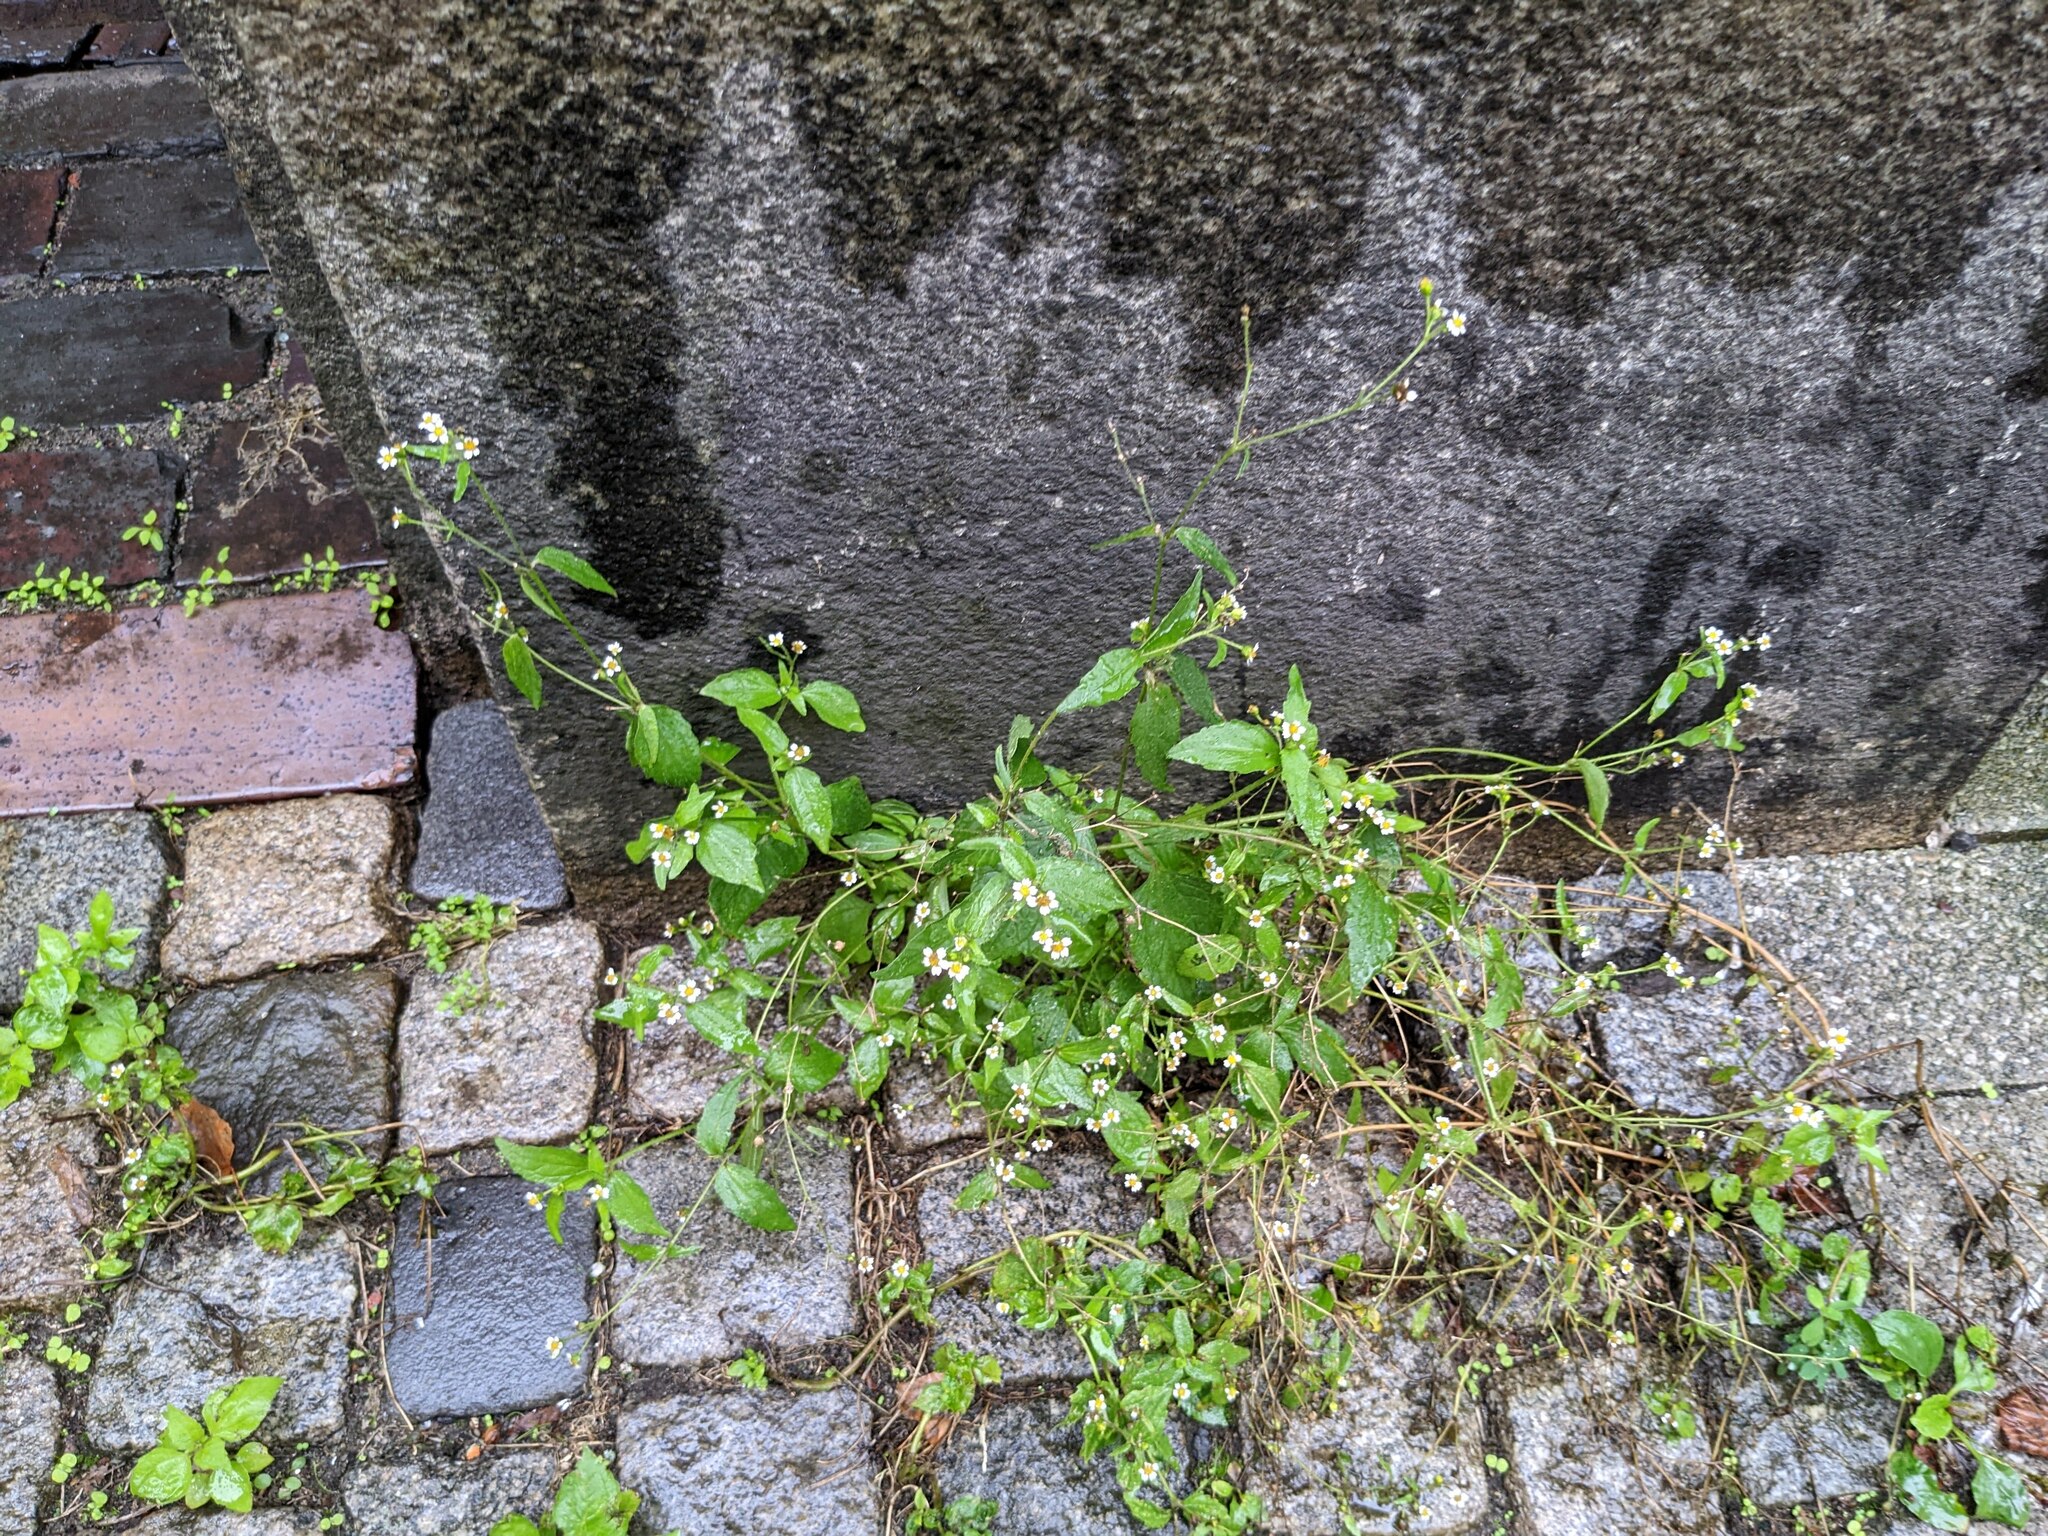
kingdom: Plantae
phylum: Tracheophyta
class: Magnoliopsida
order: Asterales
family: Asteraceae
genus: Galinsoga
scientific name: Galinsoga quadriradiata
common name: Shaggy soldier
